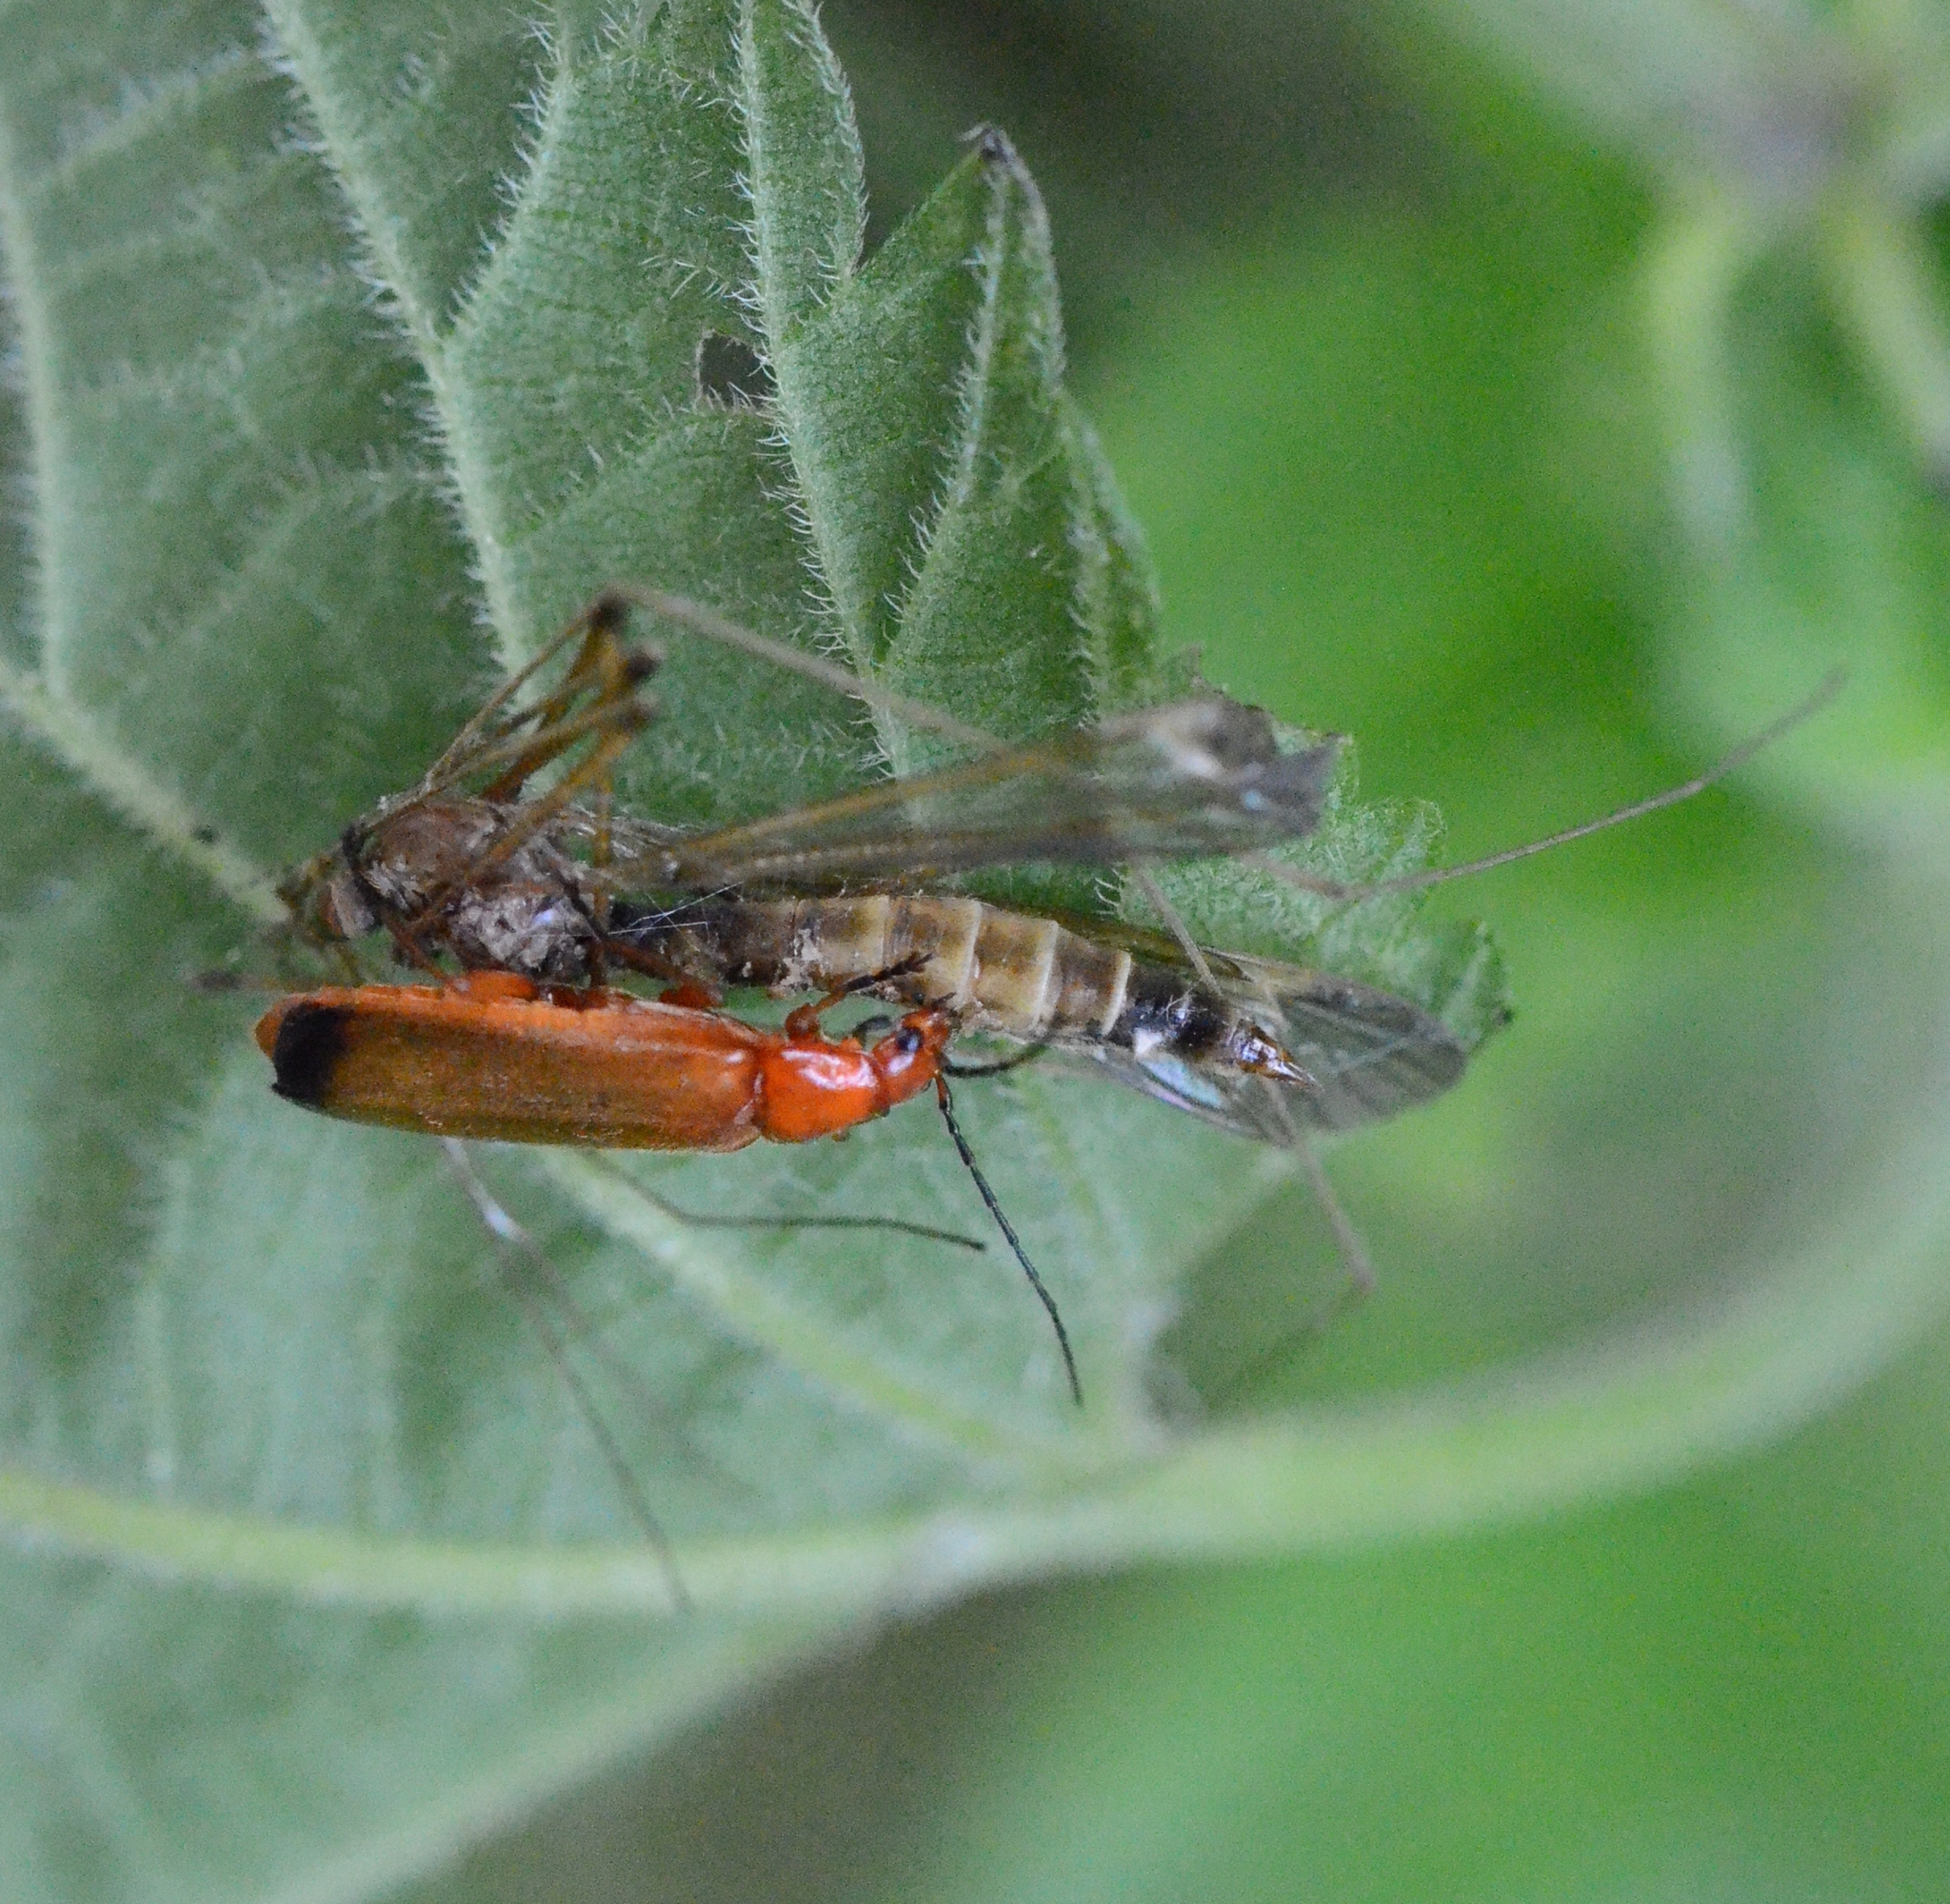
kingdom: Animalia
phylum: Arthropoda
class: Insecta
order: Coleoptera
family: Cantharidae
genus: Rhagonycha
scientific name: Rhagonycha fulva
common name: Common red soldier beetle
